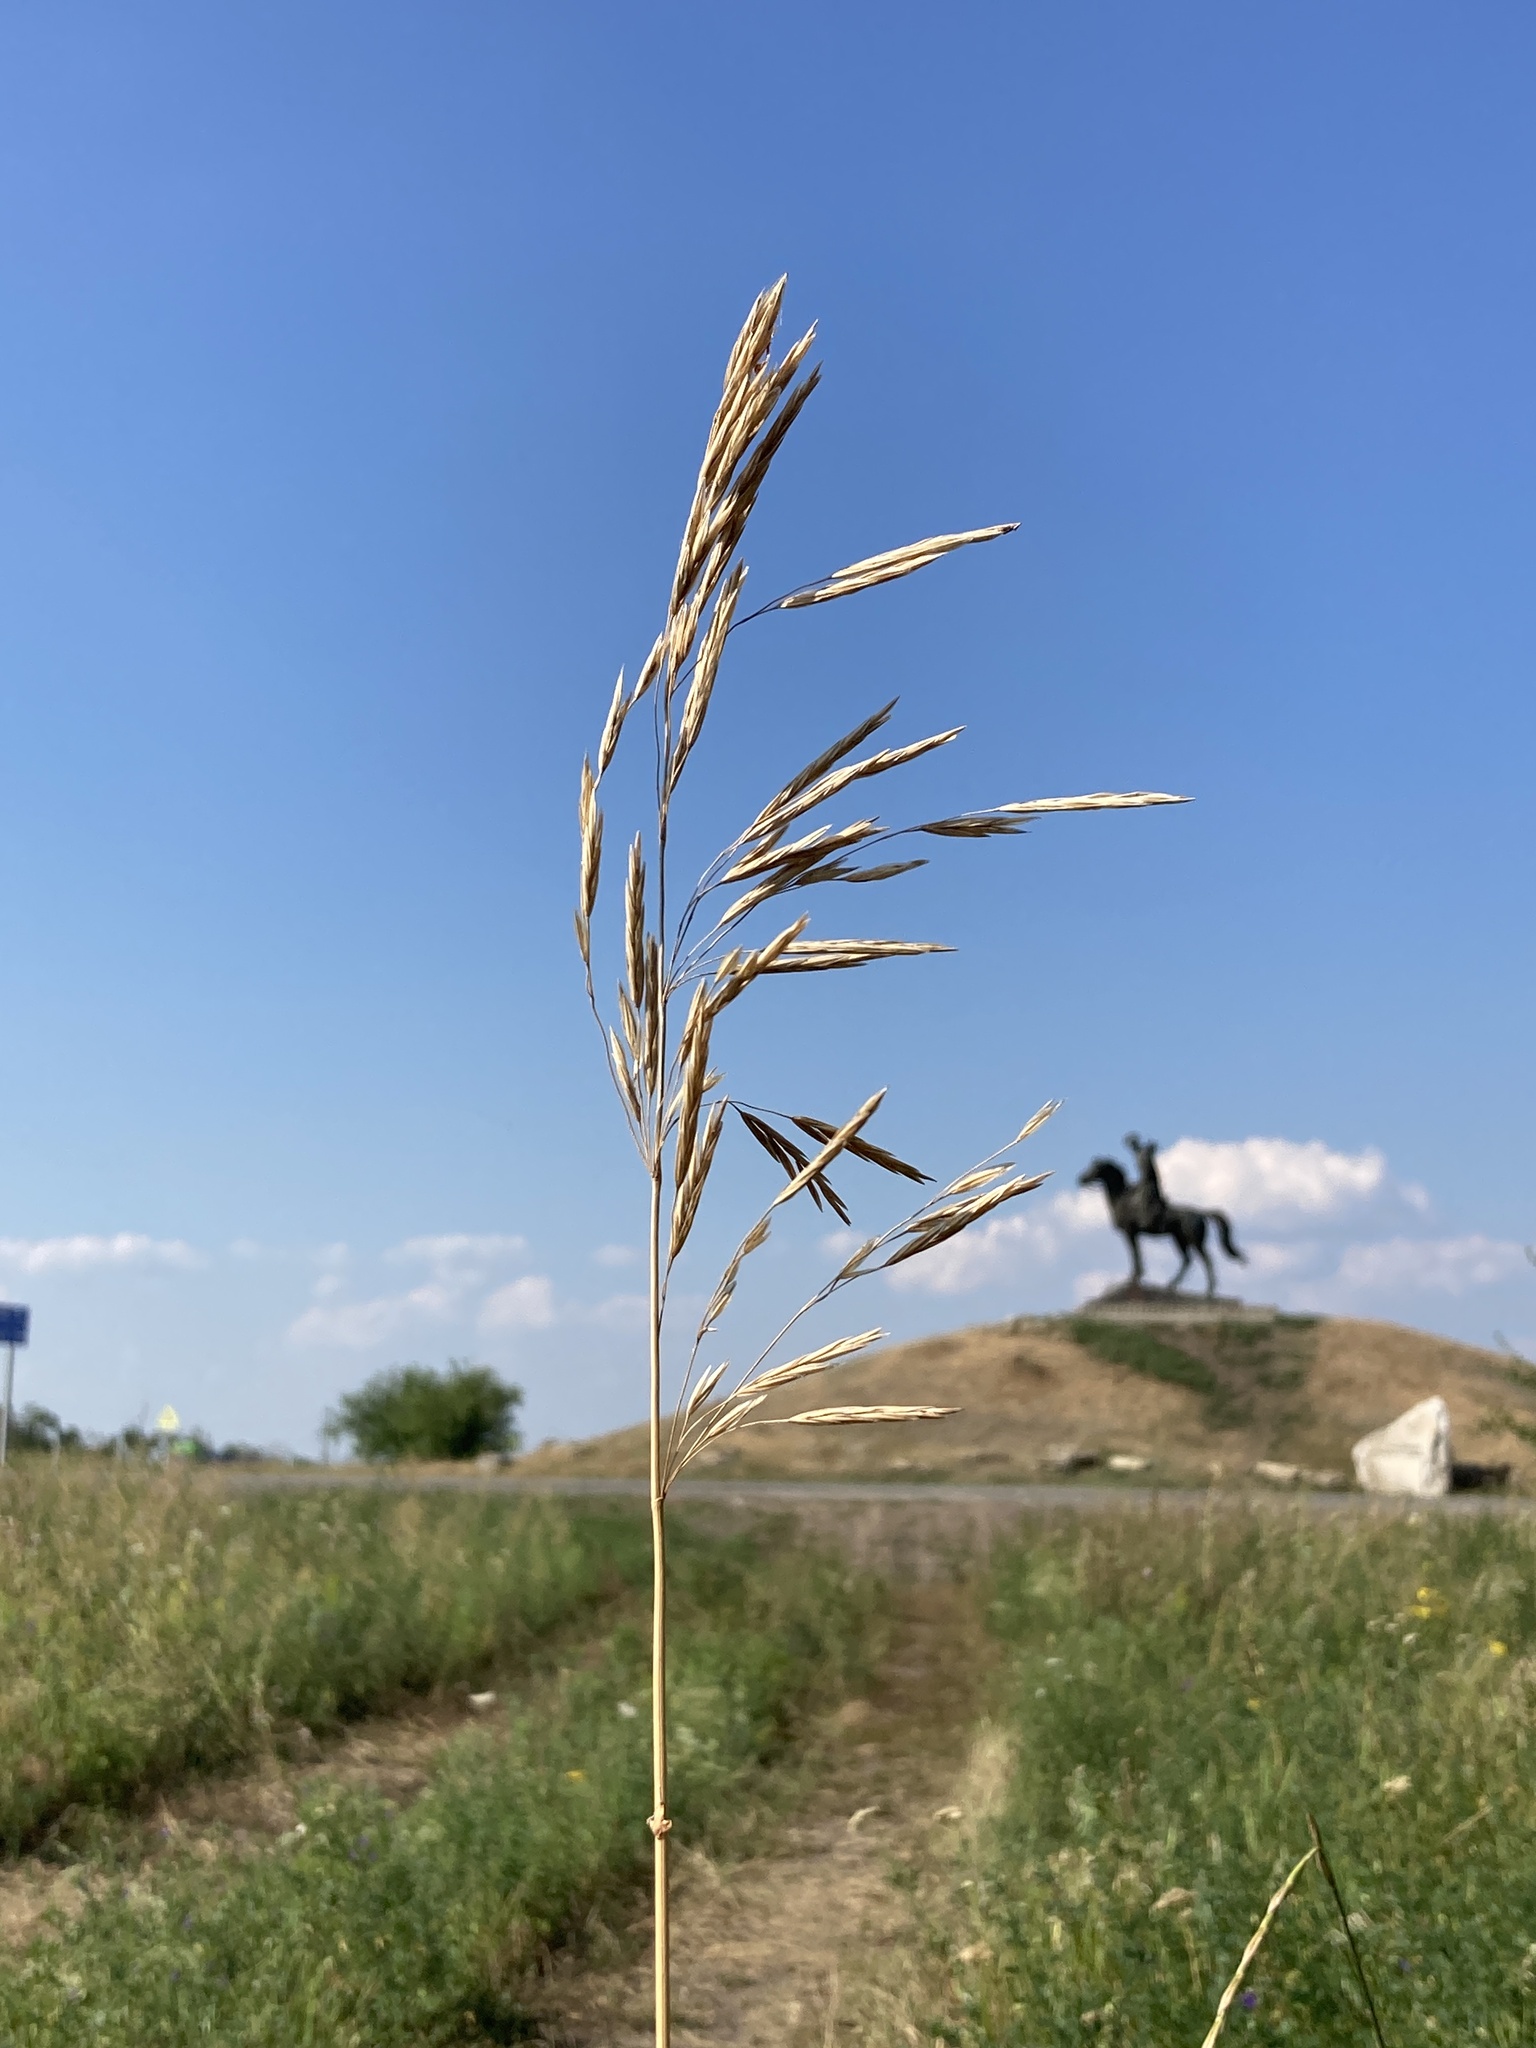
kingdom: Plantae
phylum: Tracheophyta
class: Liliopsida
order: Poales
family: Poaceae
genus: Bromus
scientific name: Bromus inermis
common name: Smooth brome
